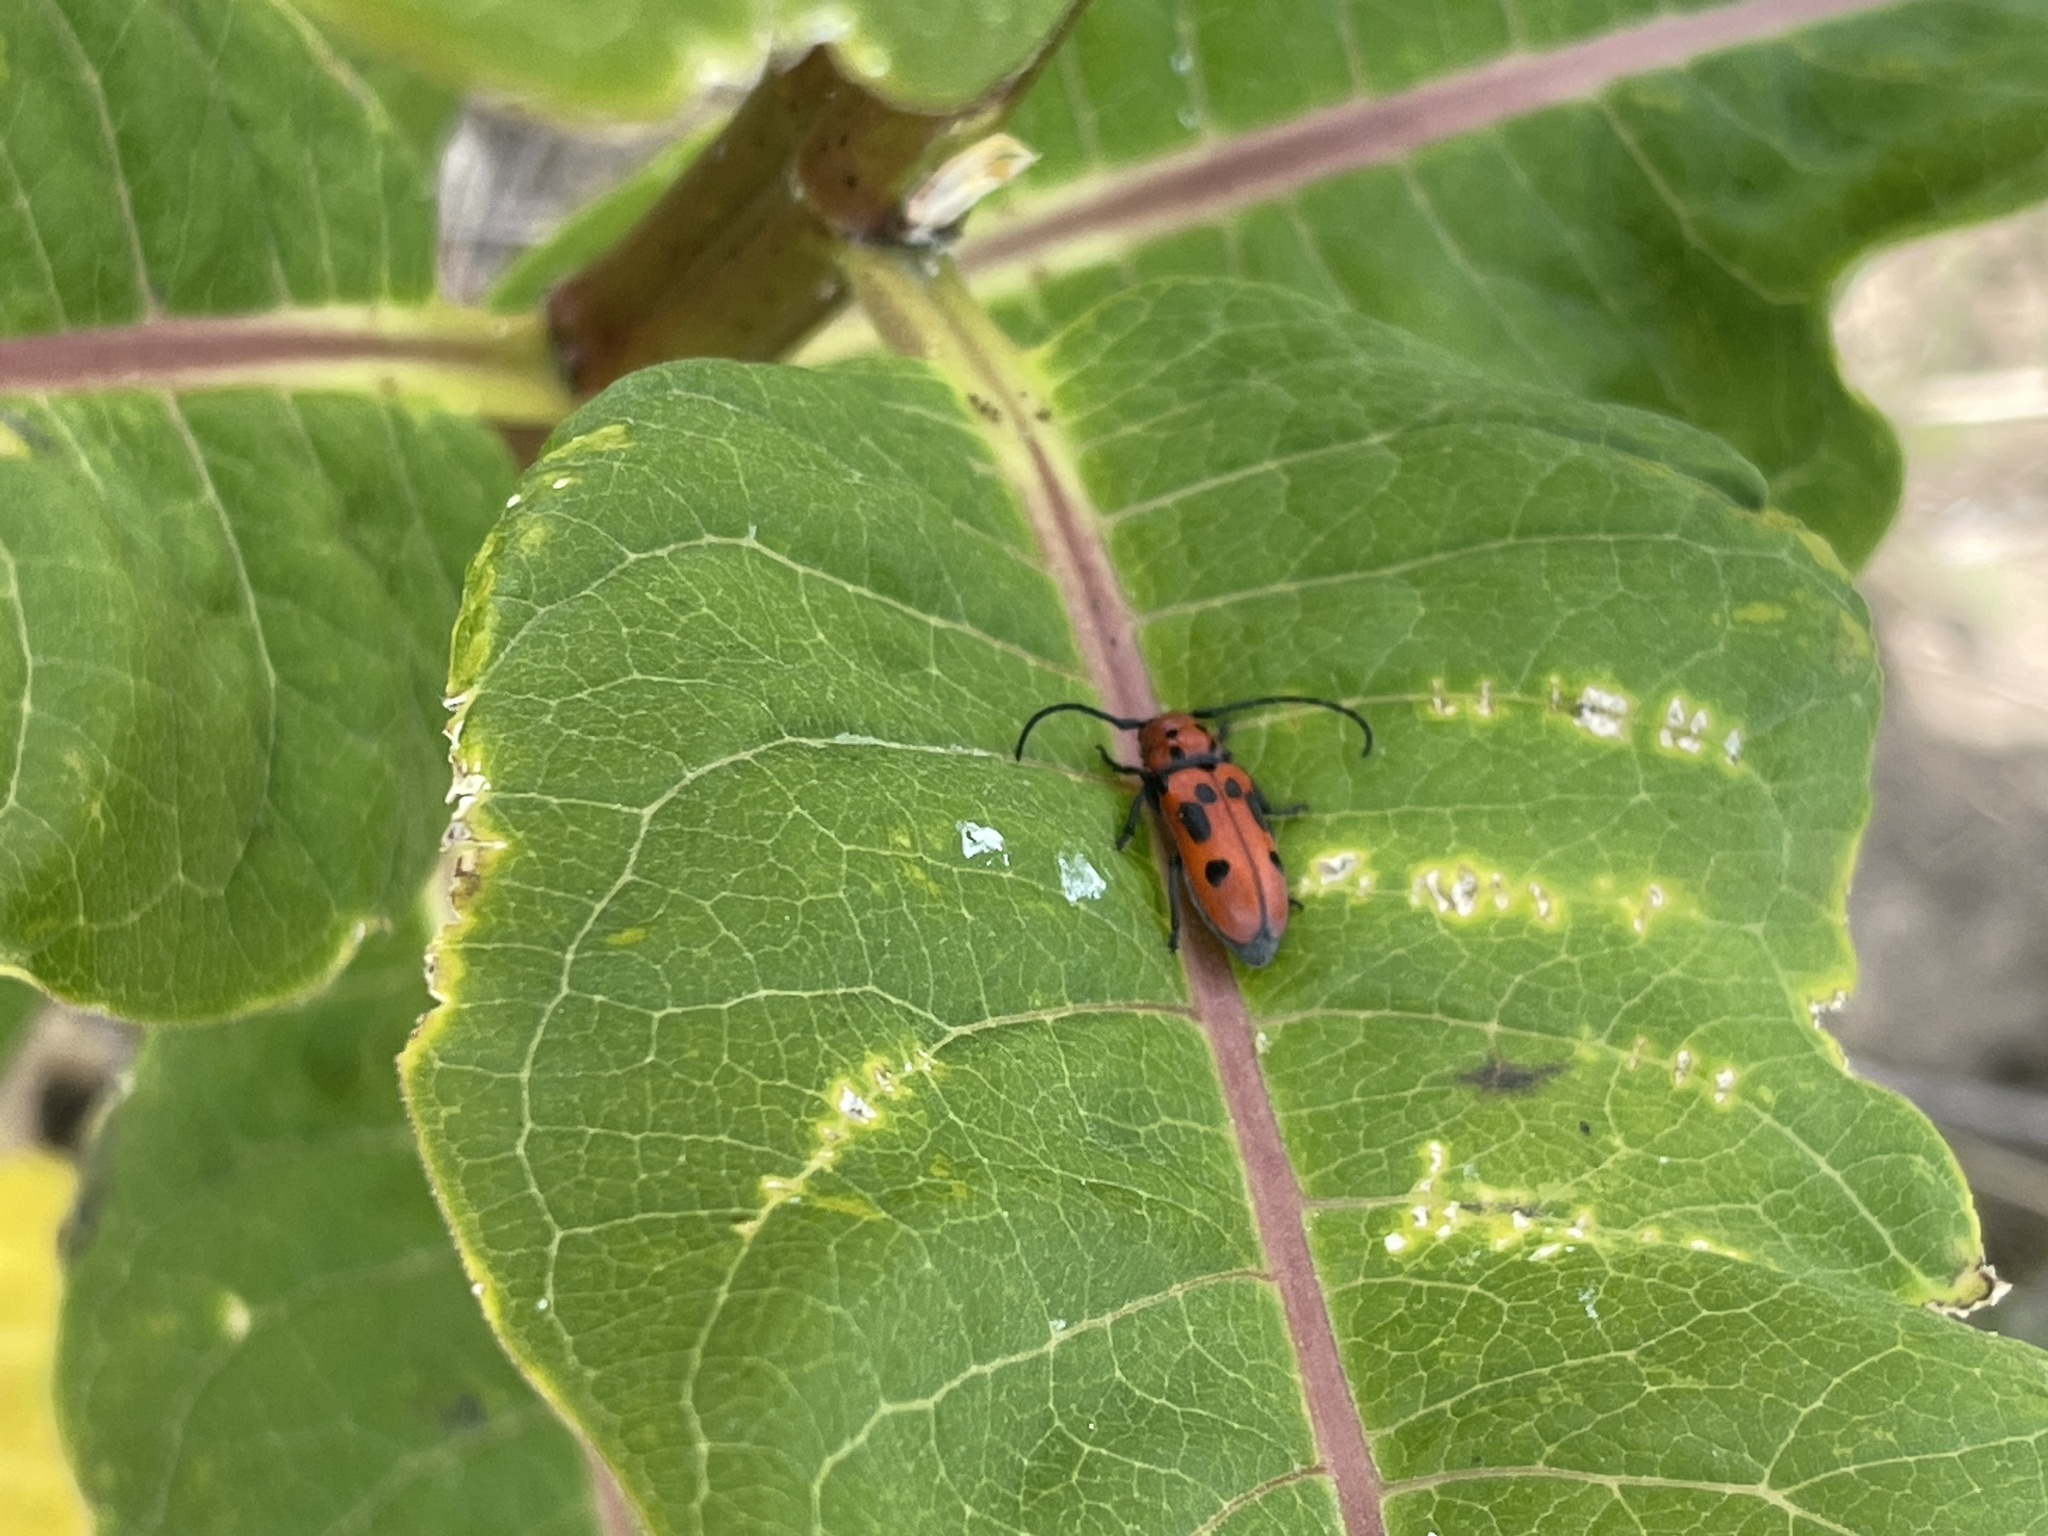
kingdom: Animalia
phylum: Arthropoda
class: Insecta
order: Coleoptera
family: Cerambycidae
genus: Tetraopes
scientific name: Tetraopes tetrophthalmus
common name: Red milkweed beetle
